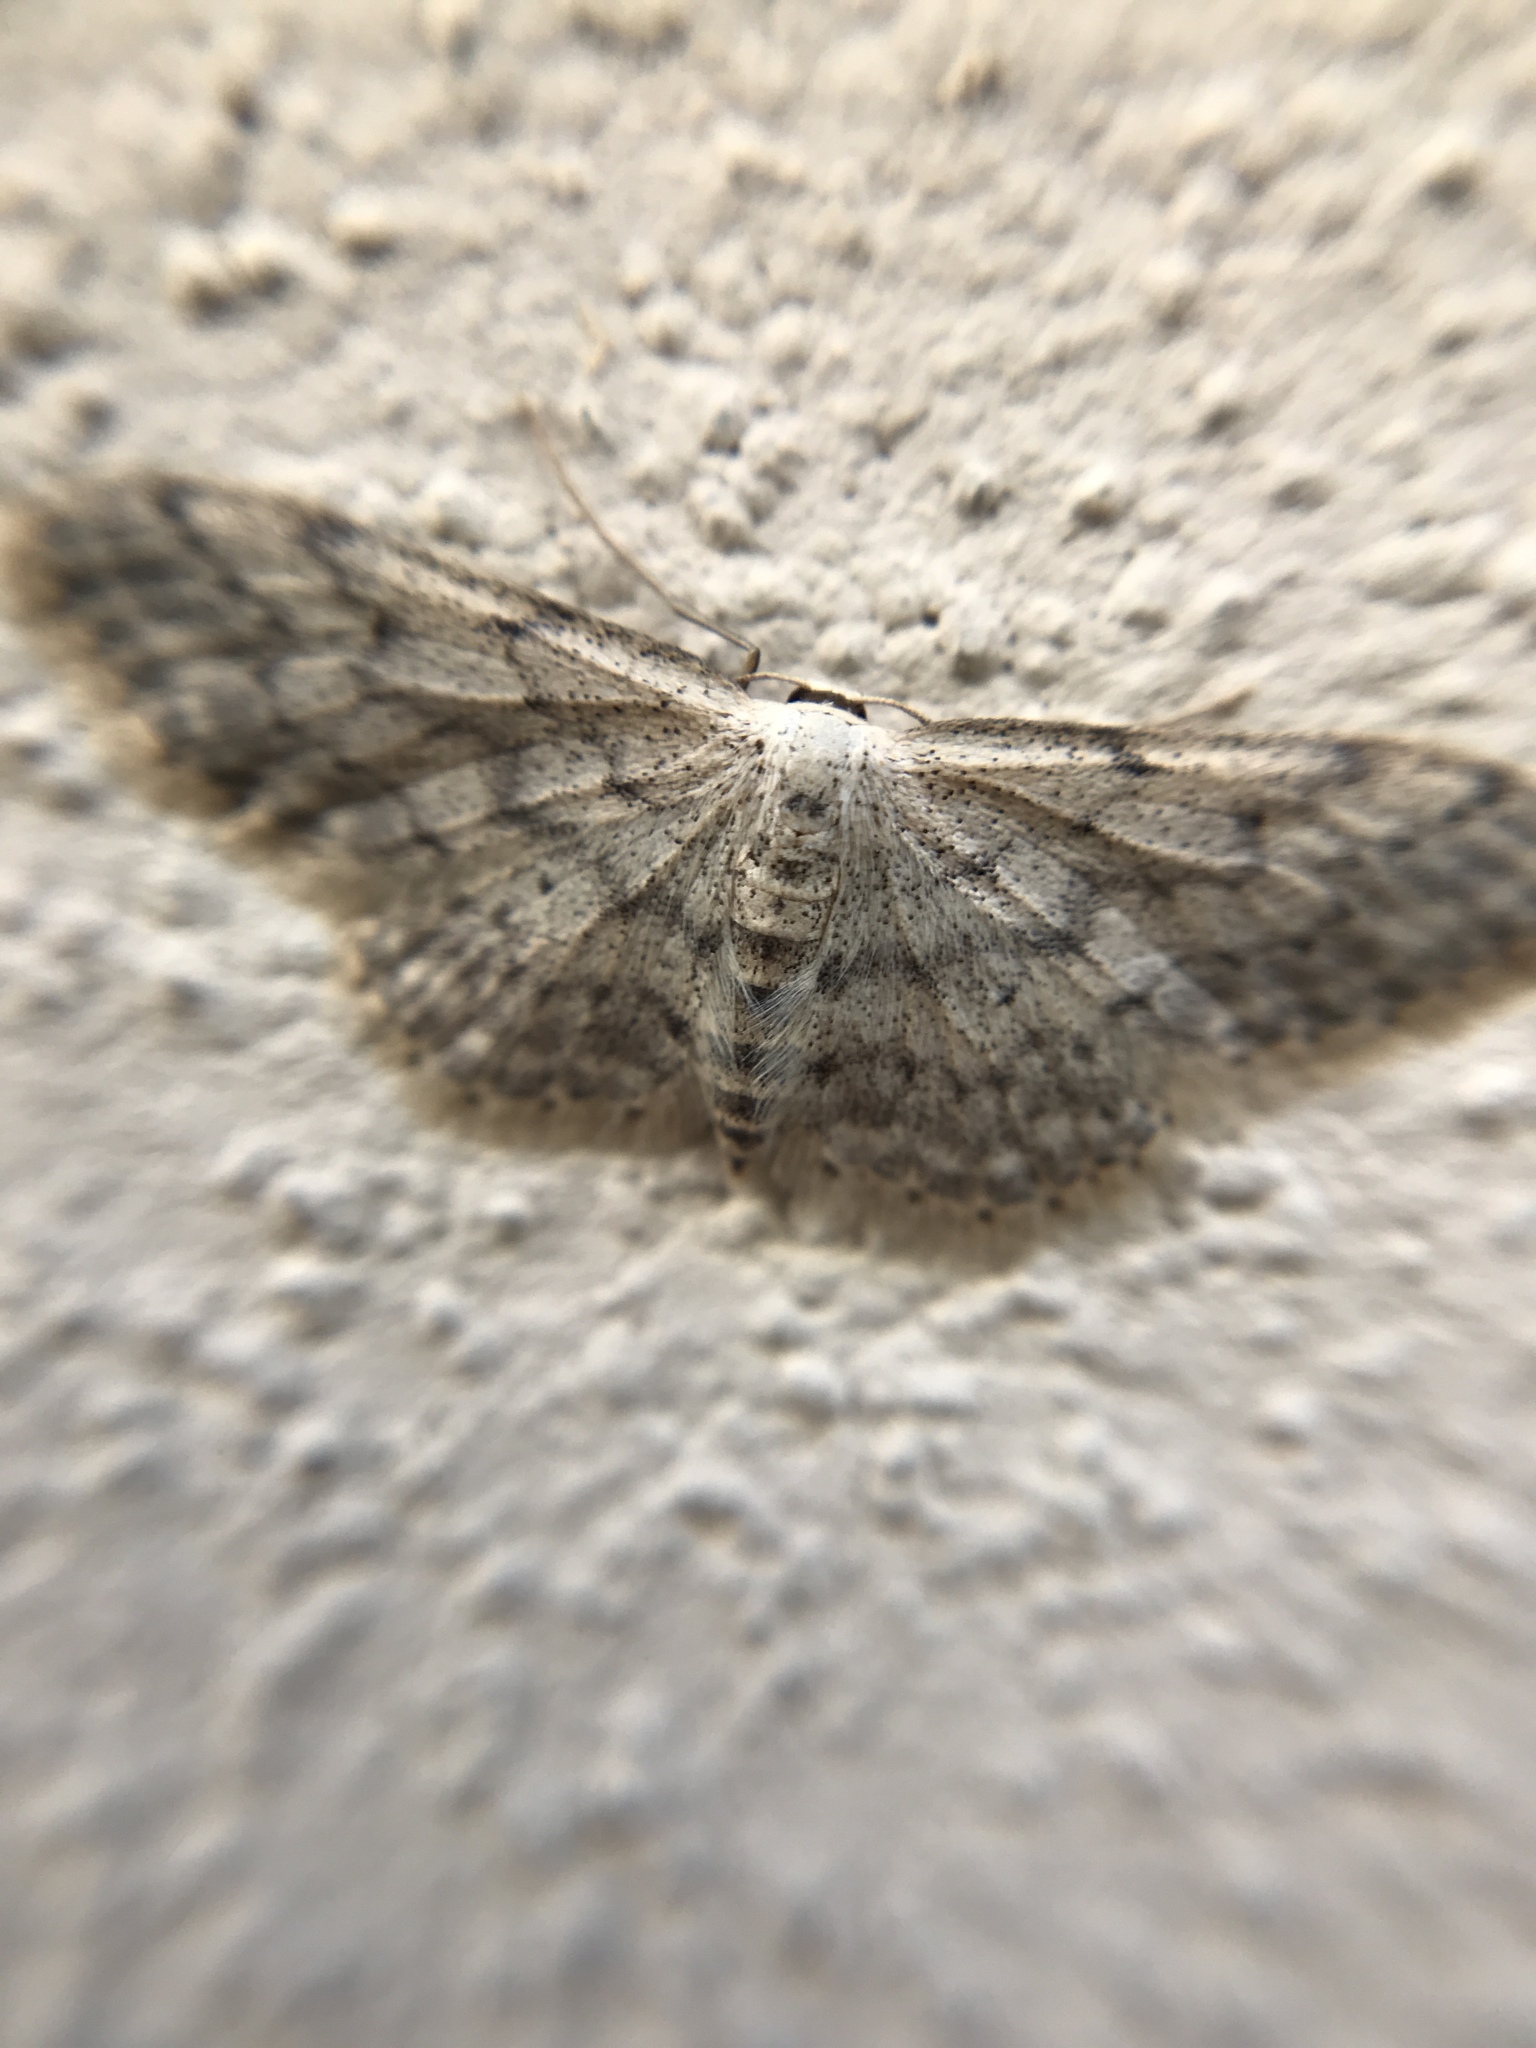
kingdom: Animalia
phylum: Arthropoda
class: Insecta
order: Lepidoptera
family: Geometridae
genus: Idaea
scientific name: Idaea seriata
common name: Small dusty wave
